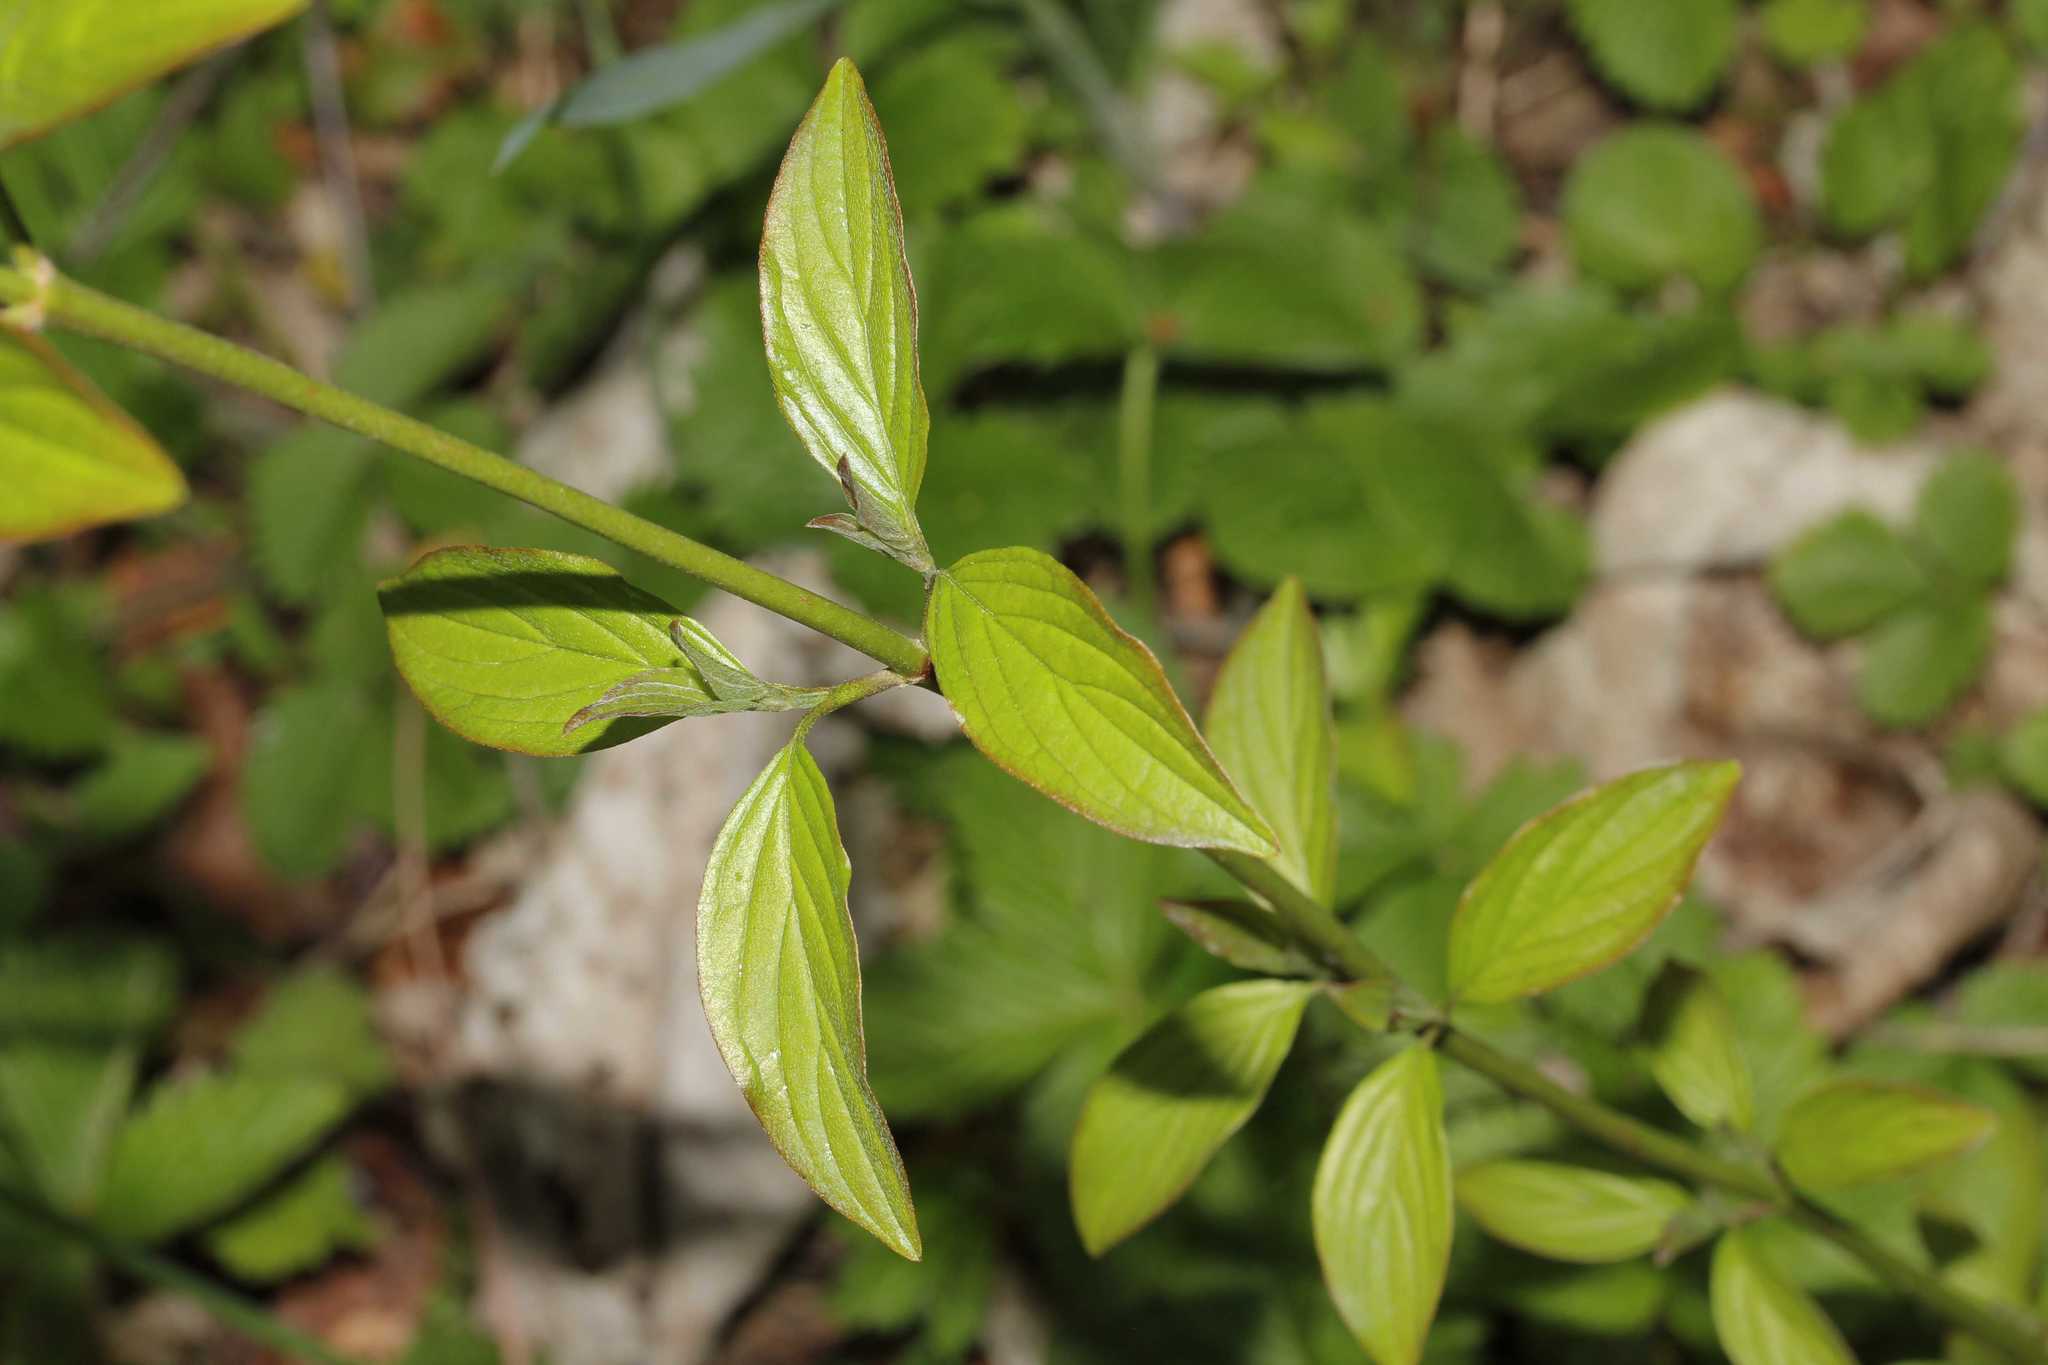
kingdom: Plantae
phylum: Tracheophyta
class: Magnoliopsida
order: Cornales
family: Cornaceae
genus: Cornus
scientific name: Cornus sanguinea
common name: Dogwood
